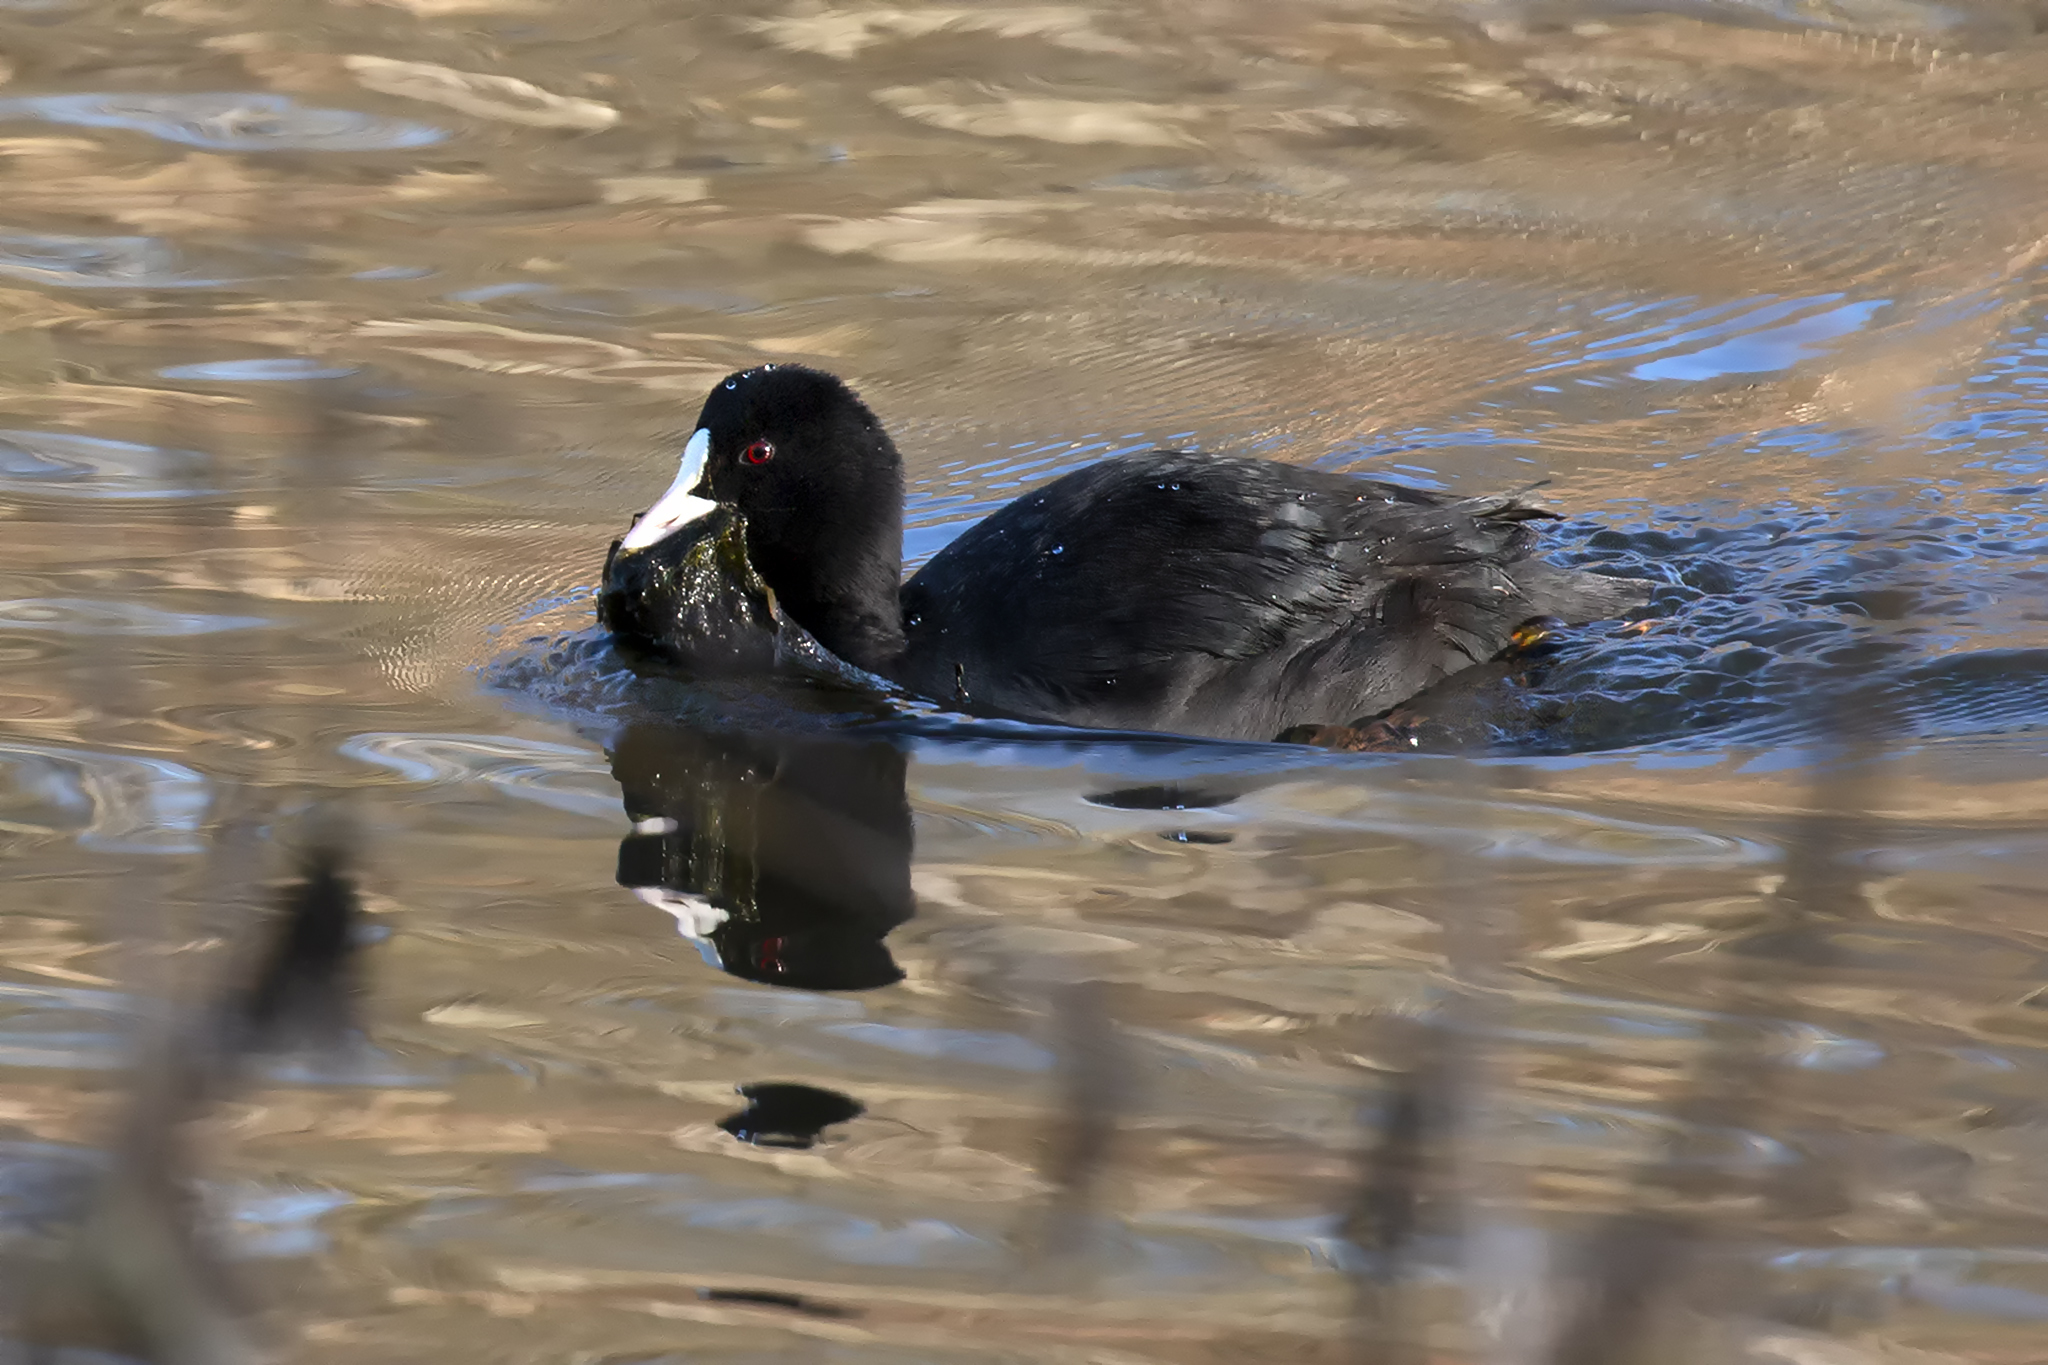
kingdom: Animalia
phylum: Chordata
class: Aves
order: Gruiformes
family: Rallidae
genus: Fulica
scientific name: Fulica atra
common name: Eurasian coot
